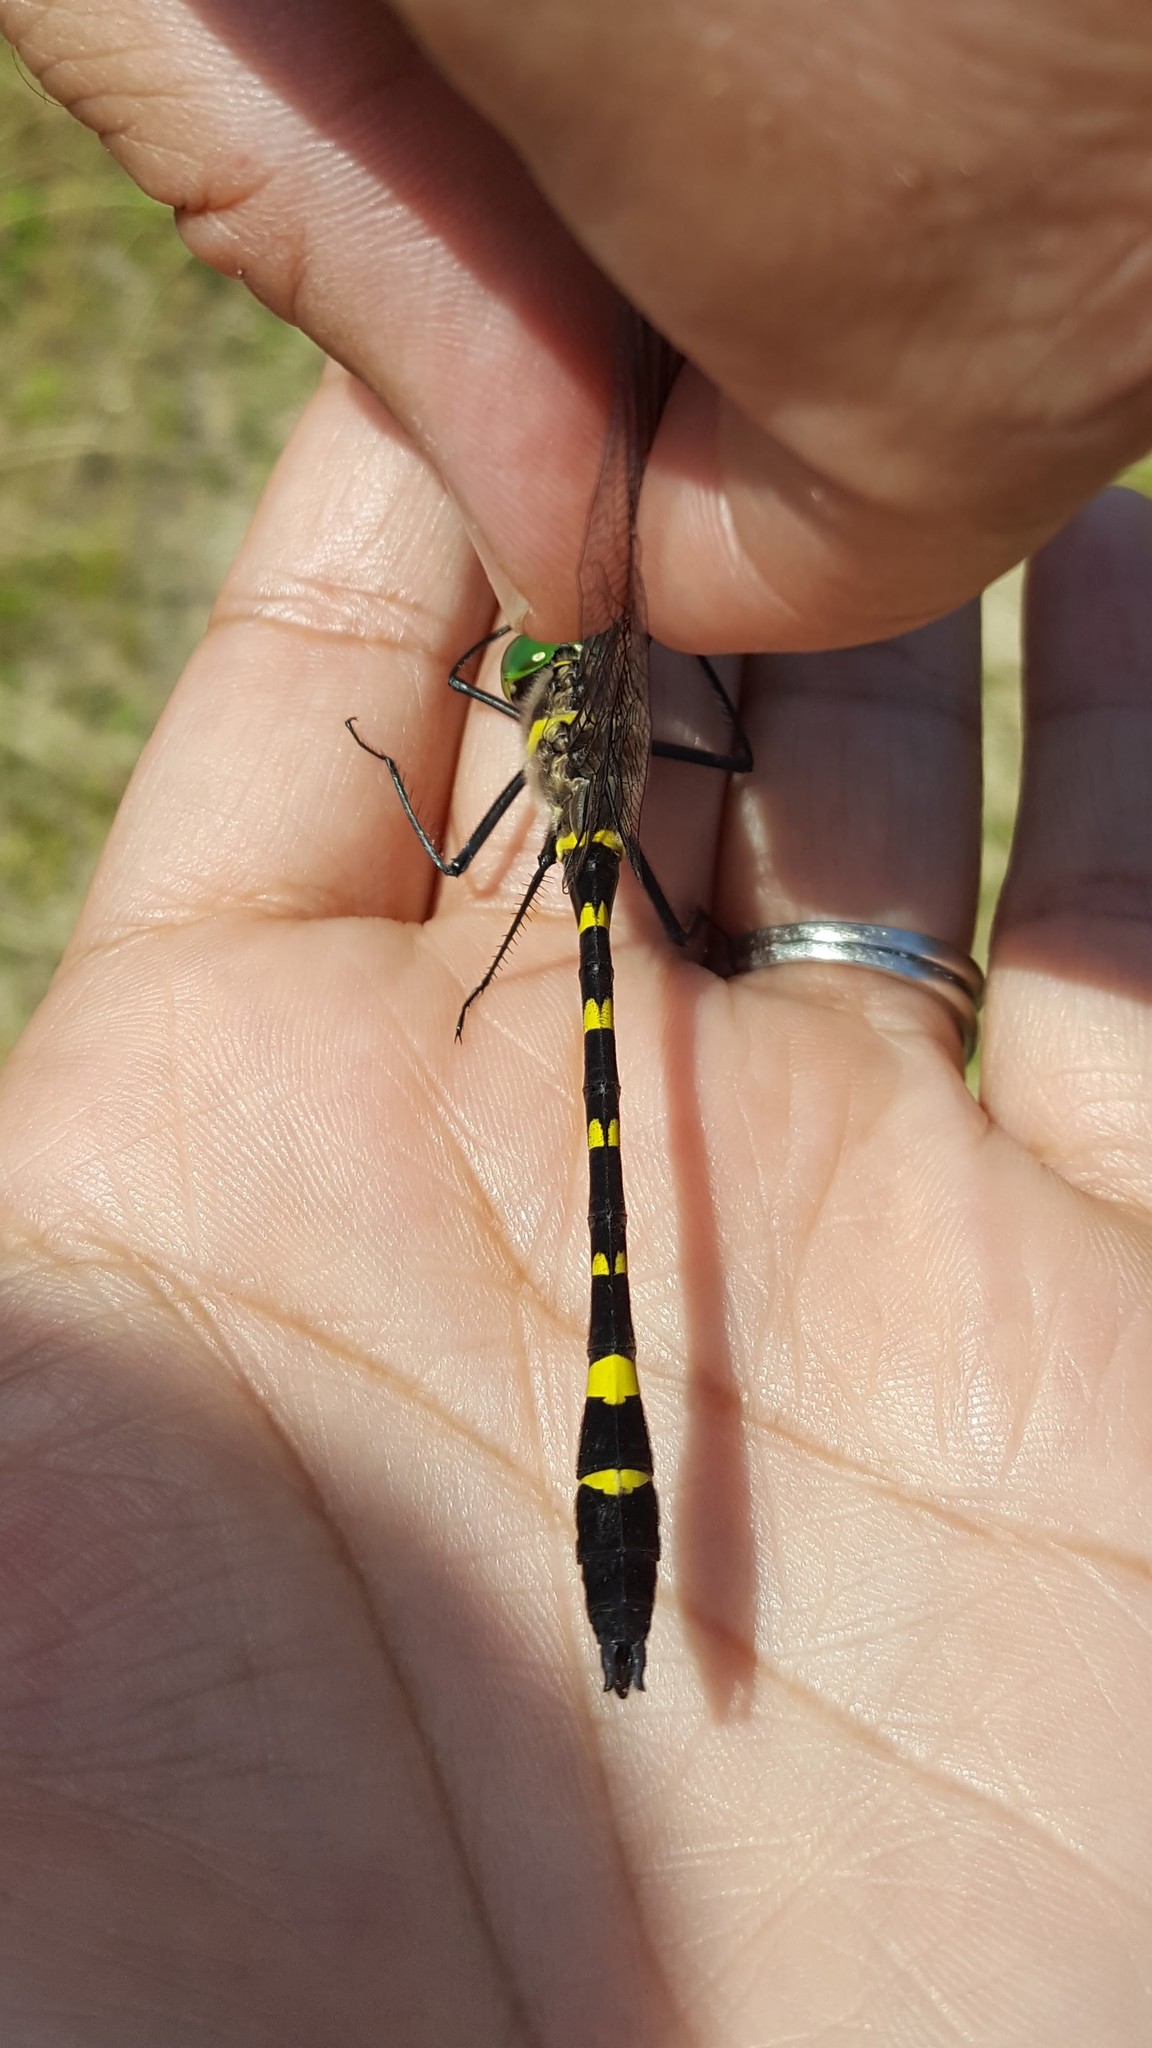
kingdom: Animalia
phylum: Arthropoda
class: Insecta
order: Odonata
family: Macromiidae
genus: Macromia
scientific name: Macromia illinoiensis
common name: Swift river cruiser
